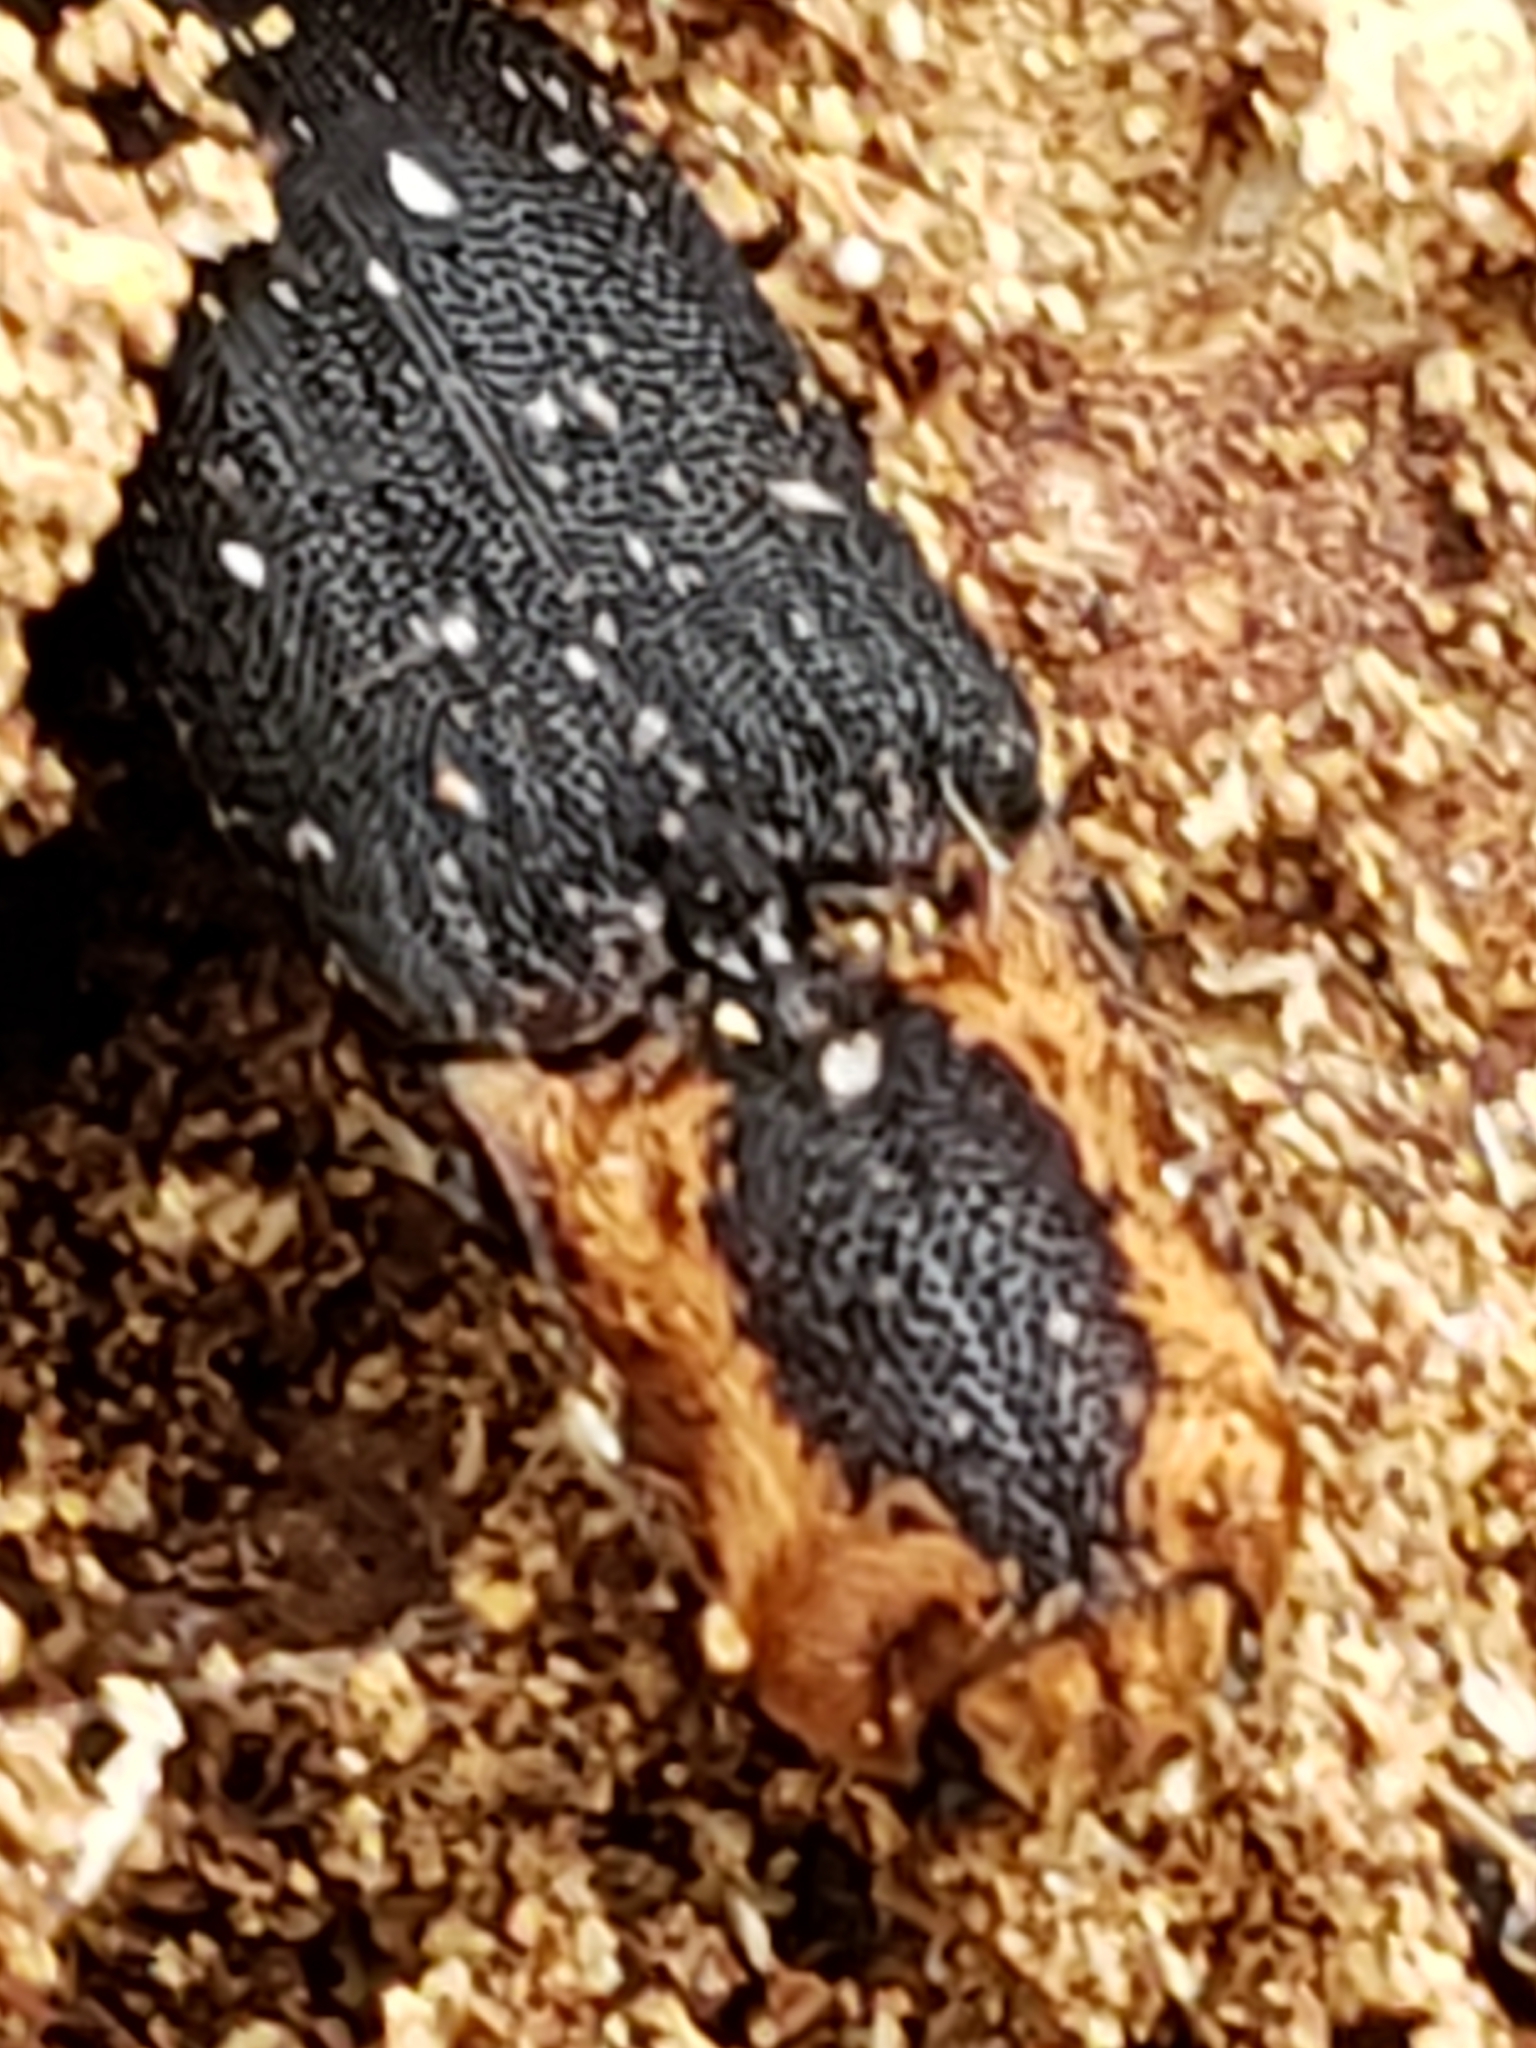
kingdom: Animalia
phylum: Arthropoda
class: Insecta
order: Coleoptera
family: Elateridae
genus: Lacon
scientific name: Lacon discoideus
